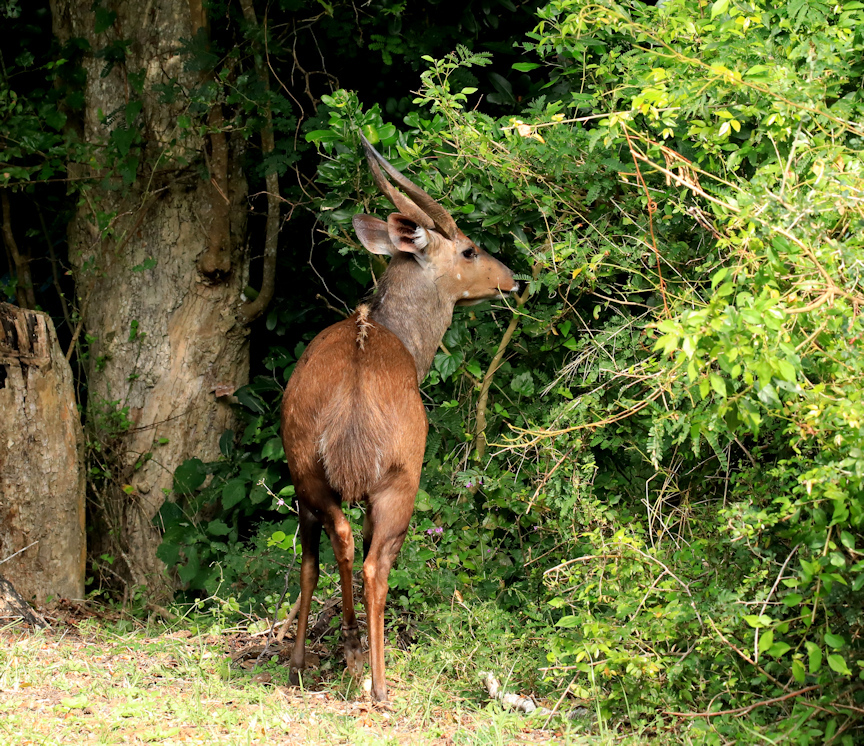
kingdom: Animalia
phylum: Chordata
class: Mammalia
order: Artiodactyla
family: Bovidae
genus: Tragelaphus
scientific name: Tragelaphus scriptus
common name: Bushbuck
